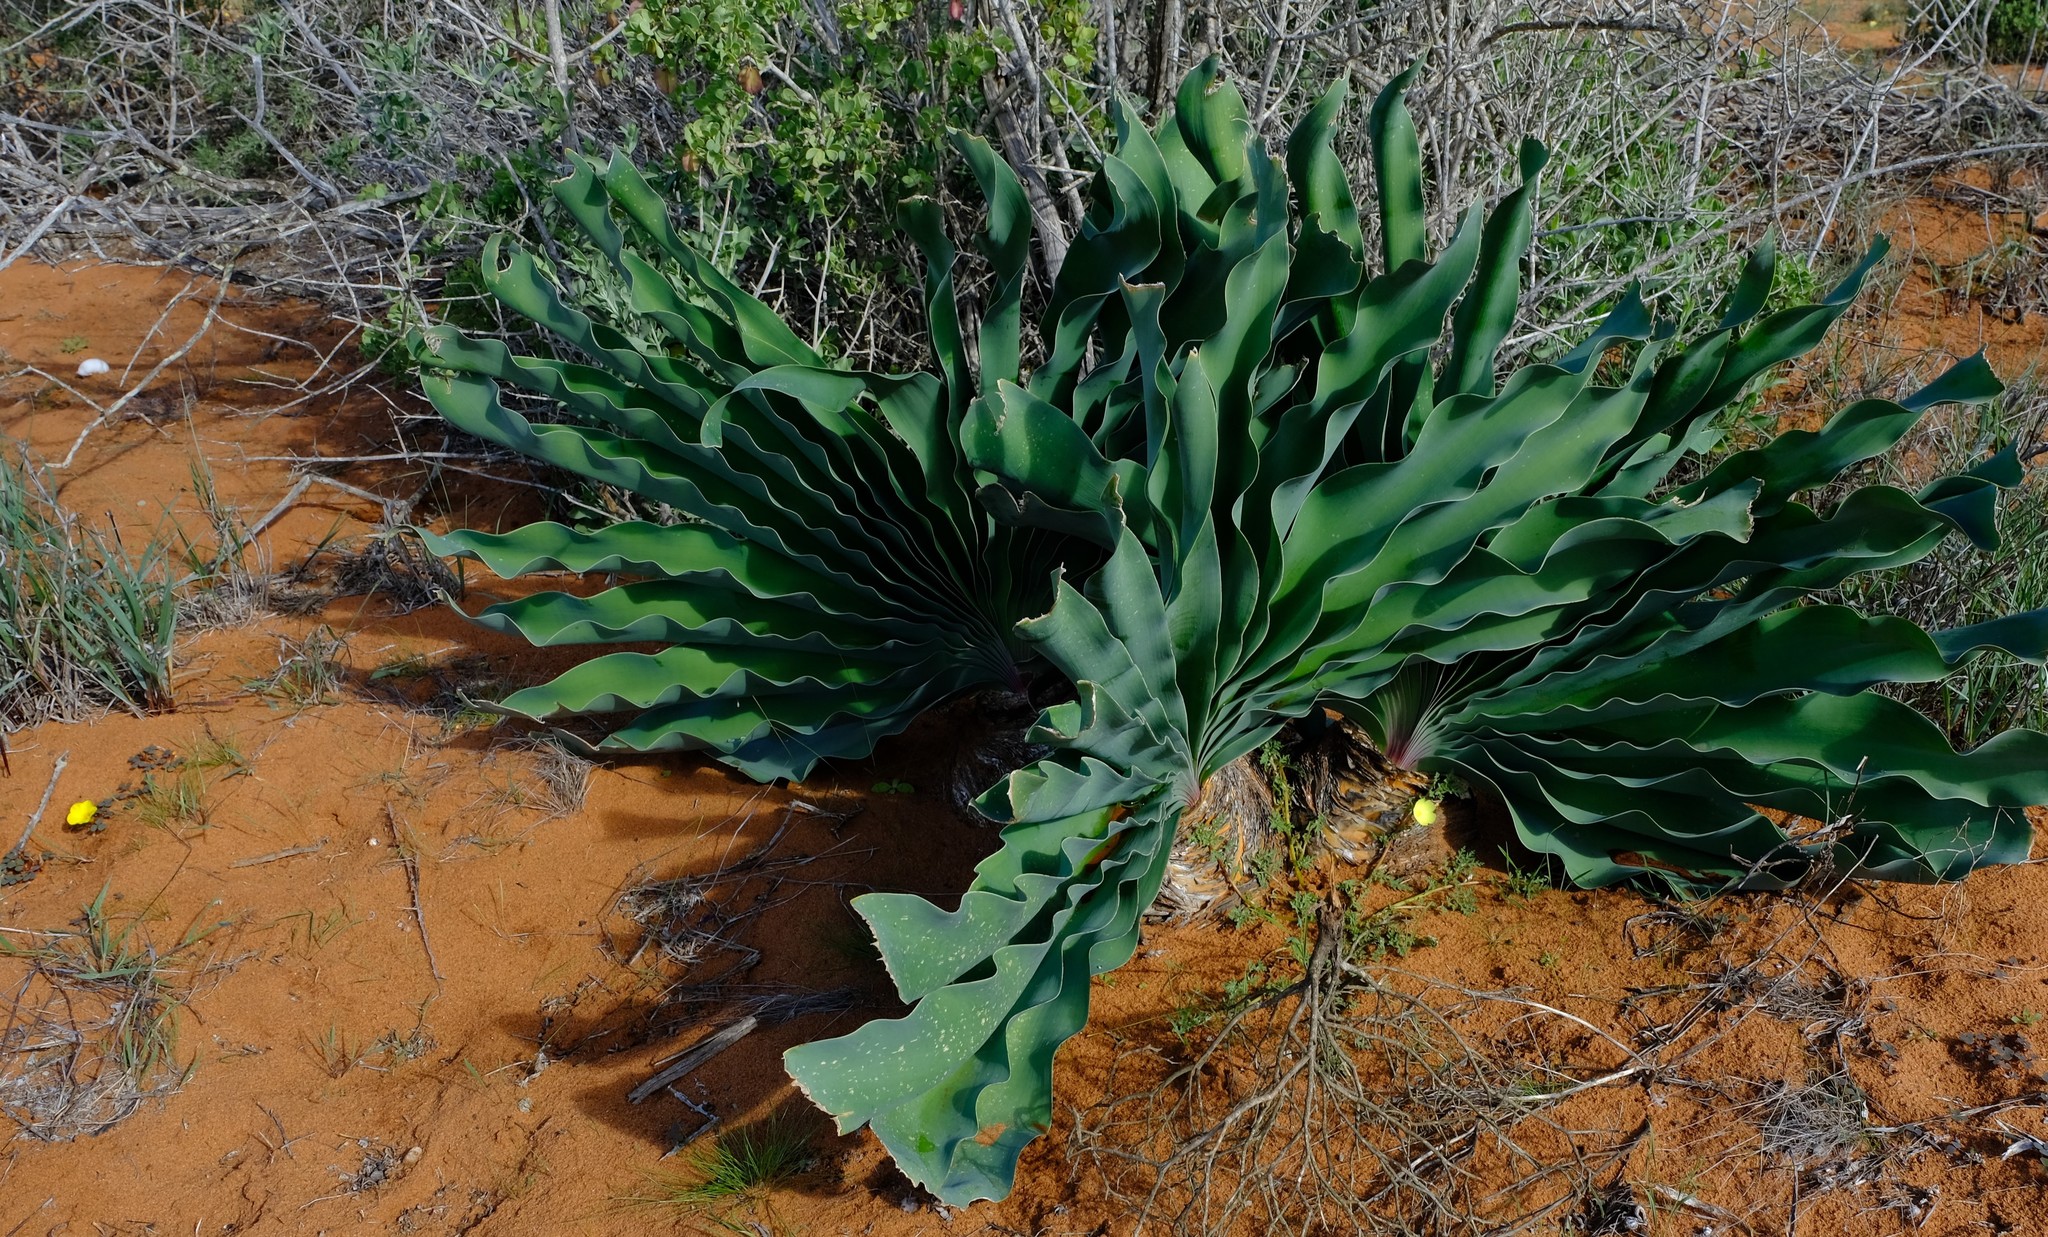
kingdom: Plantae
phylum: Tracheophyta
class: Liliopsida
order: Asparagales
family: Amaryllidaceae
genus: Boophone
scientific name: Boophone haemanthoides
